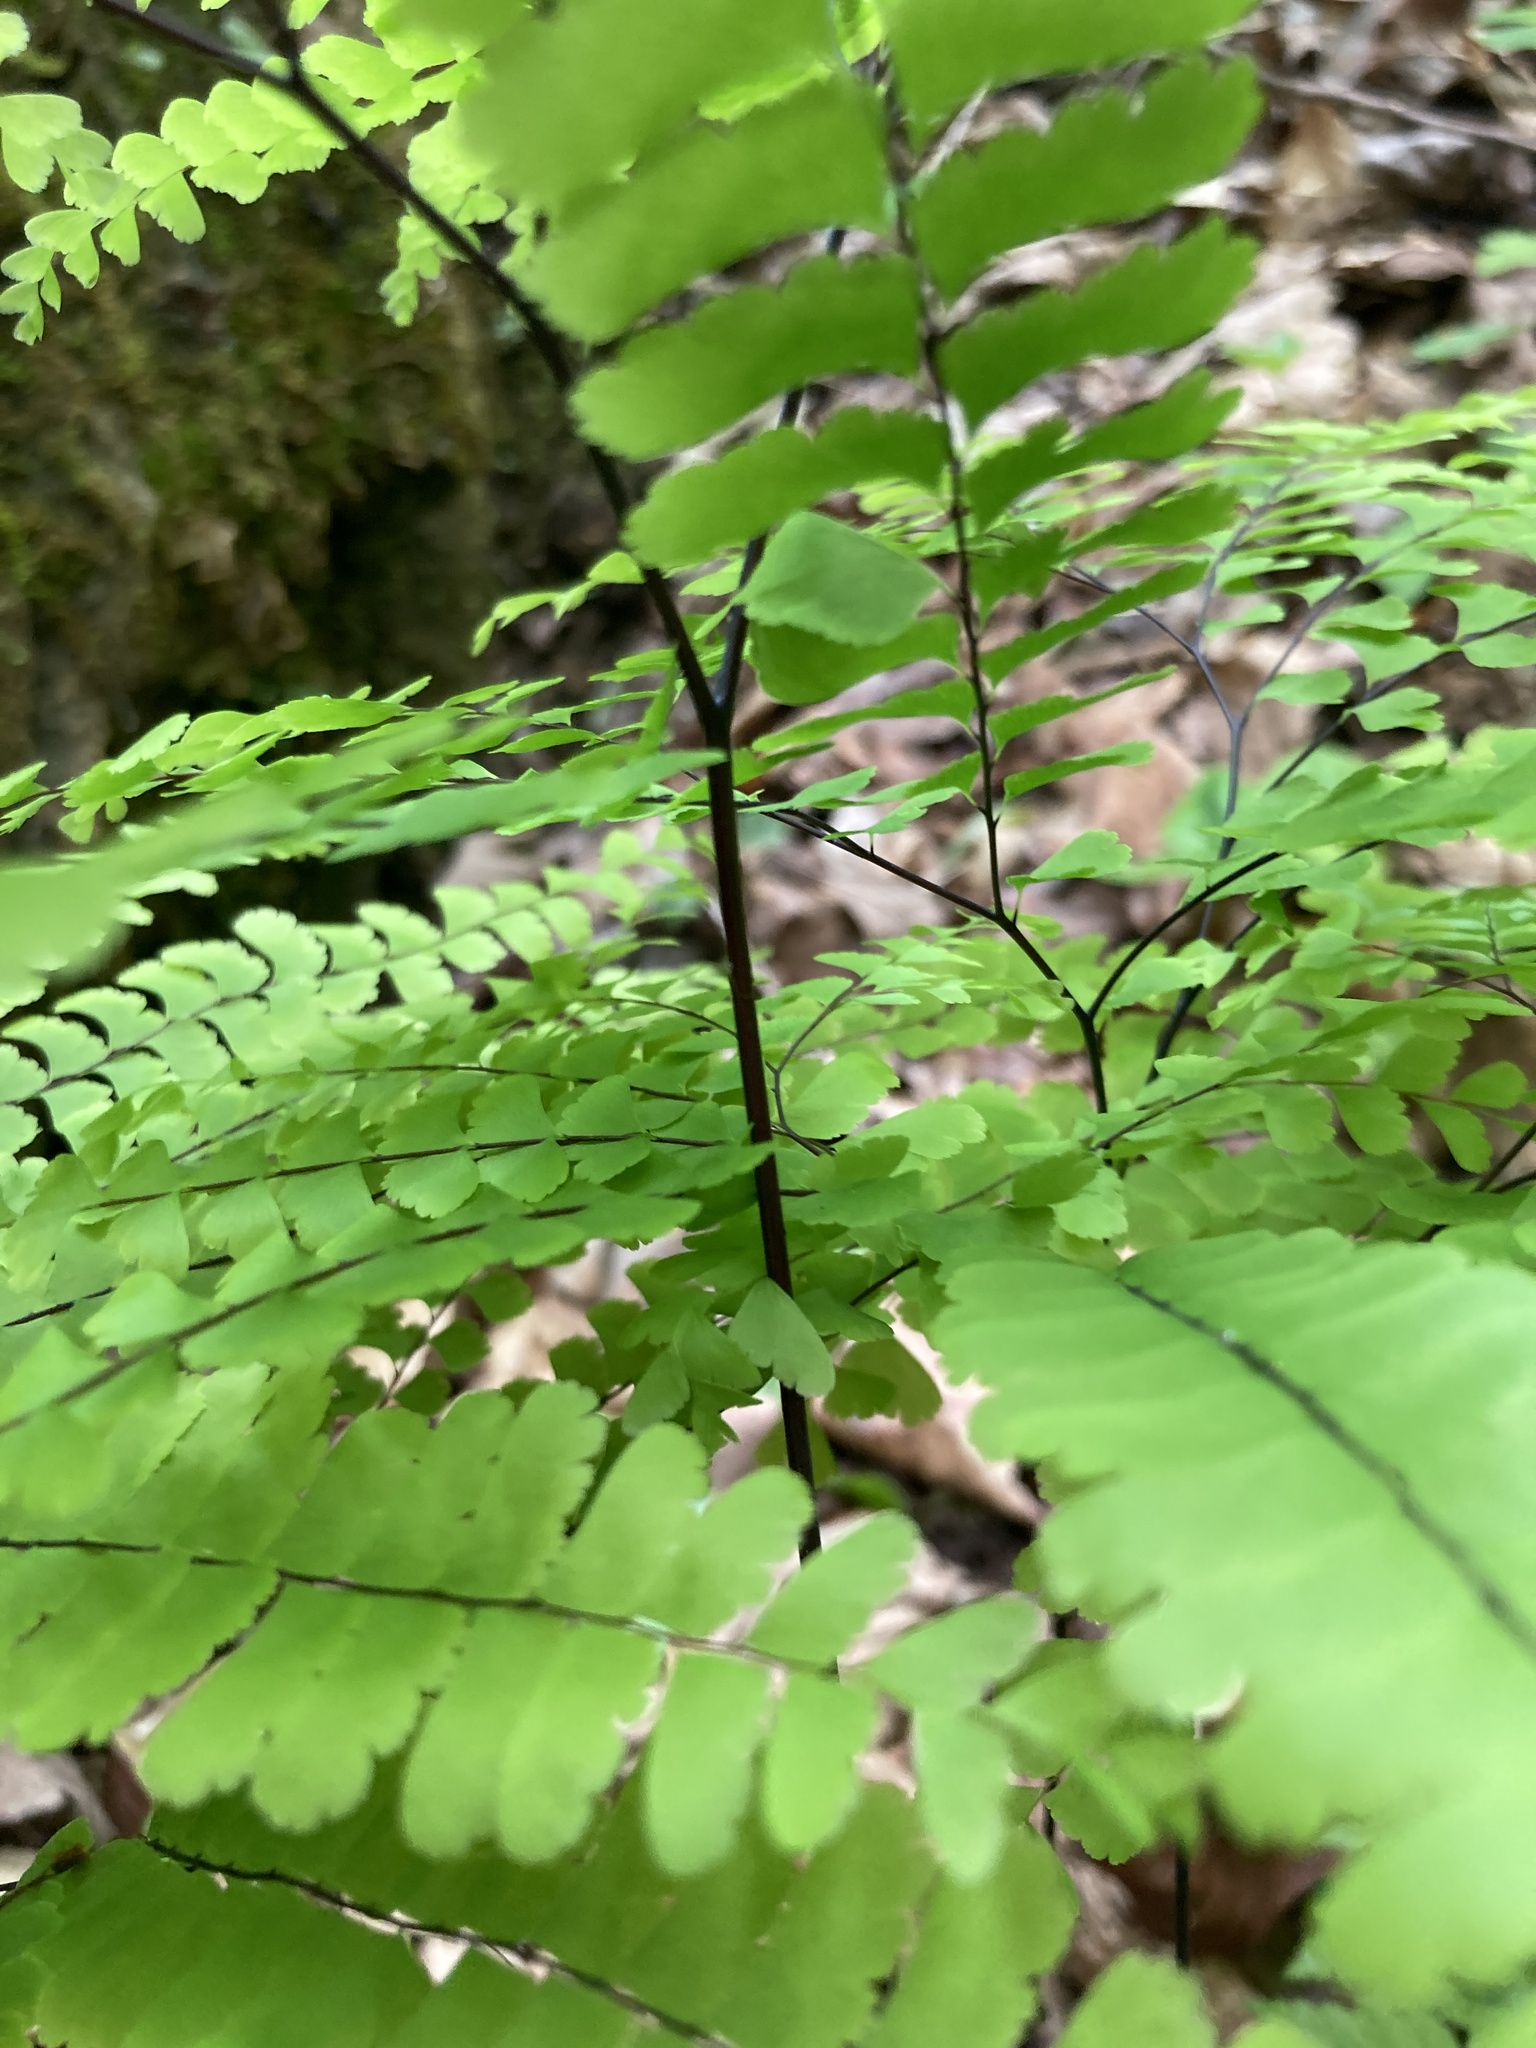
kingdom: Plantae
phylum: Tracheophyta
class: Polypodiopsida
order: Polypodiales
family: Pteridaceae
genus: Adiantum
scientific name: Adiantum pedatum
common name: Five-finger fern
